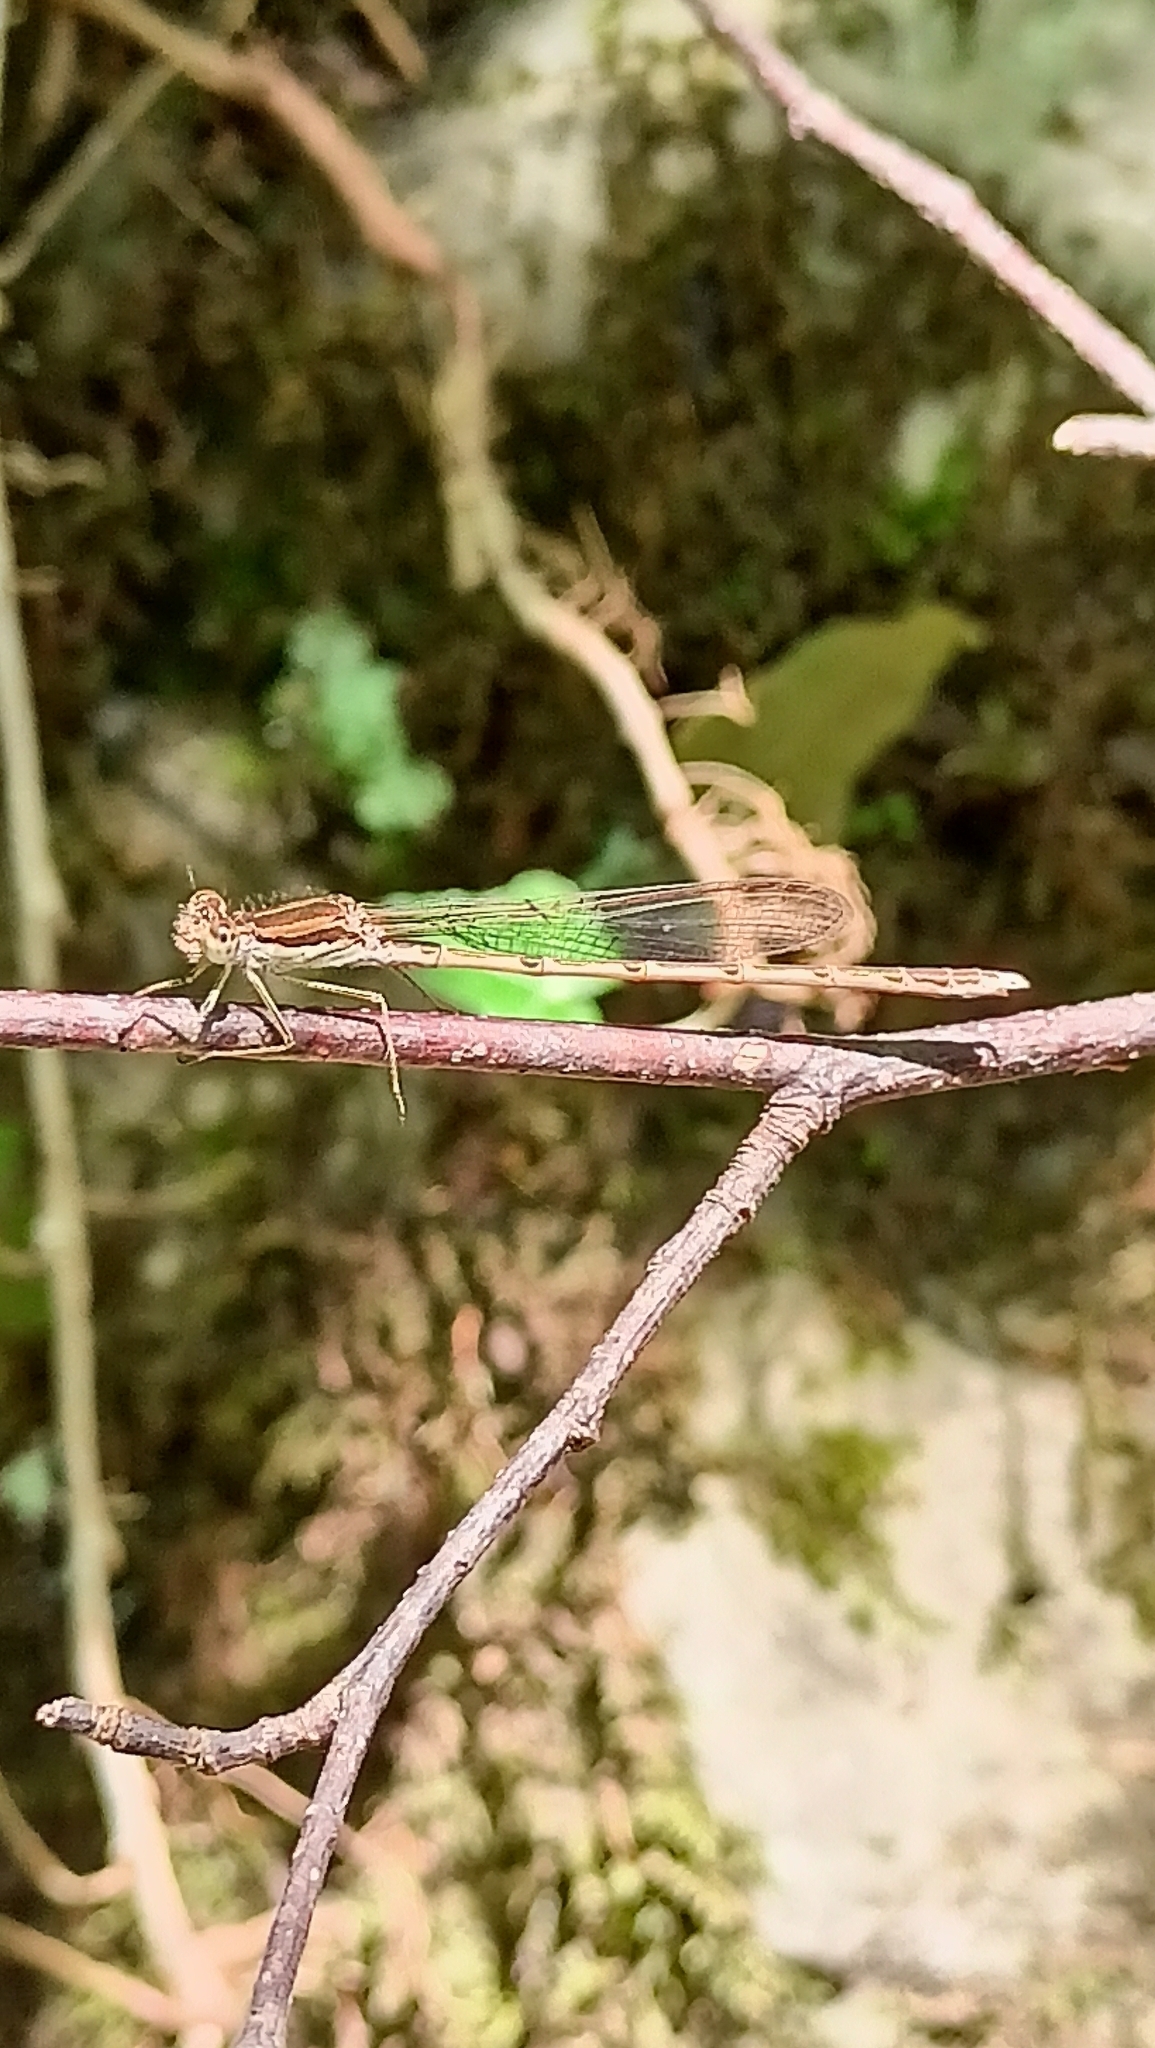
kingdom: Animalia
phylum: Arthropoda
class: Insecta
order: Odonata
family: Lestidae
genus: Sympecma
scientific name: Sympecma fusca
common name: Common winter damsel
